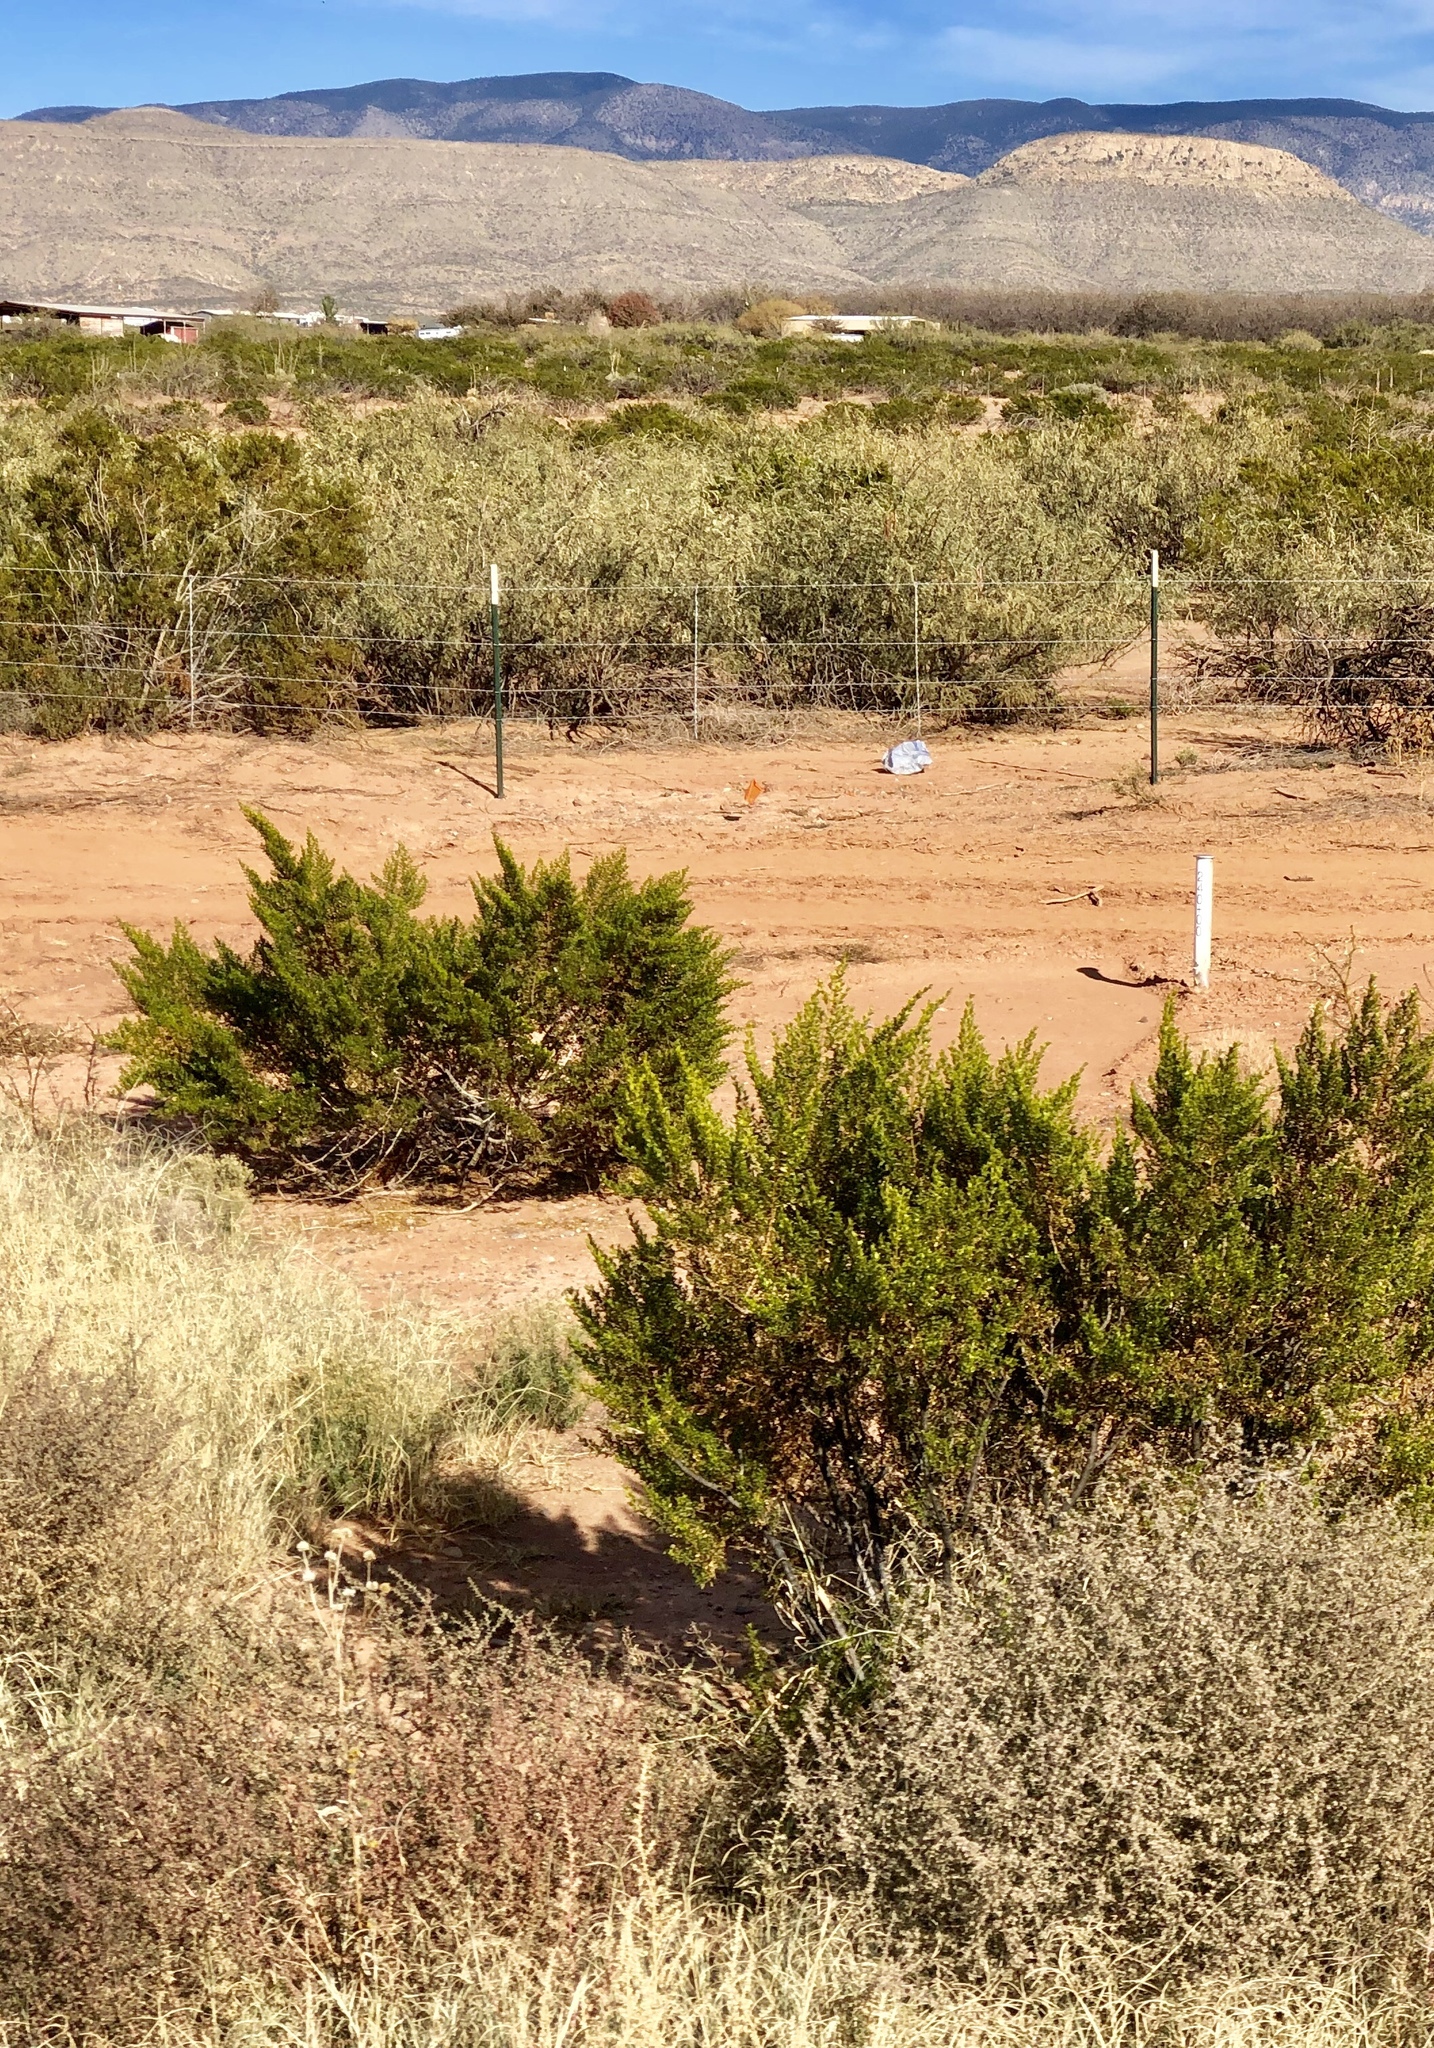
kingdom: Plantae
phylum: Tracheophyta
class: Magnoliopsida
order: Zygophyllales
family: Zygophyllaceae
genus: Larrea
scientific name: Larrea tridentata
